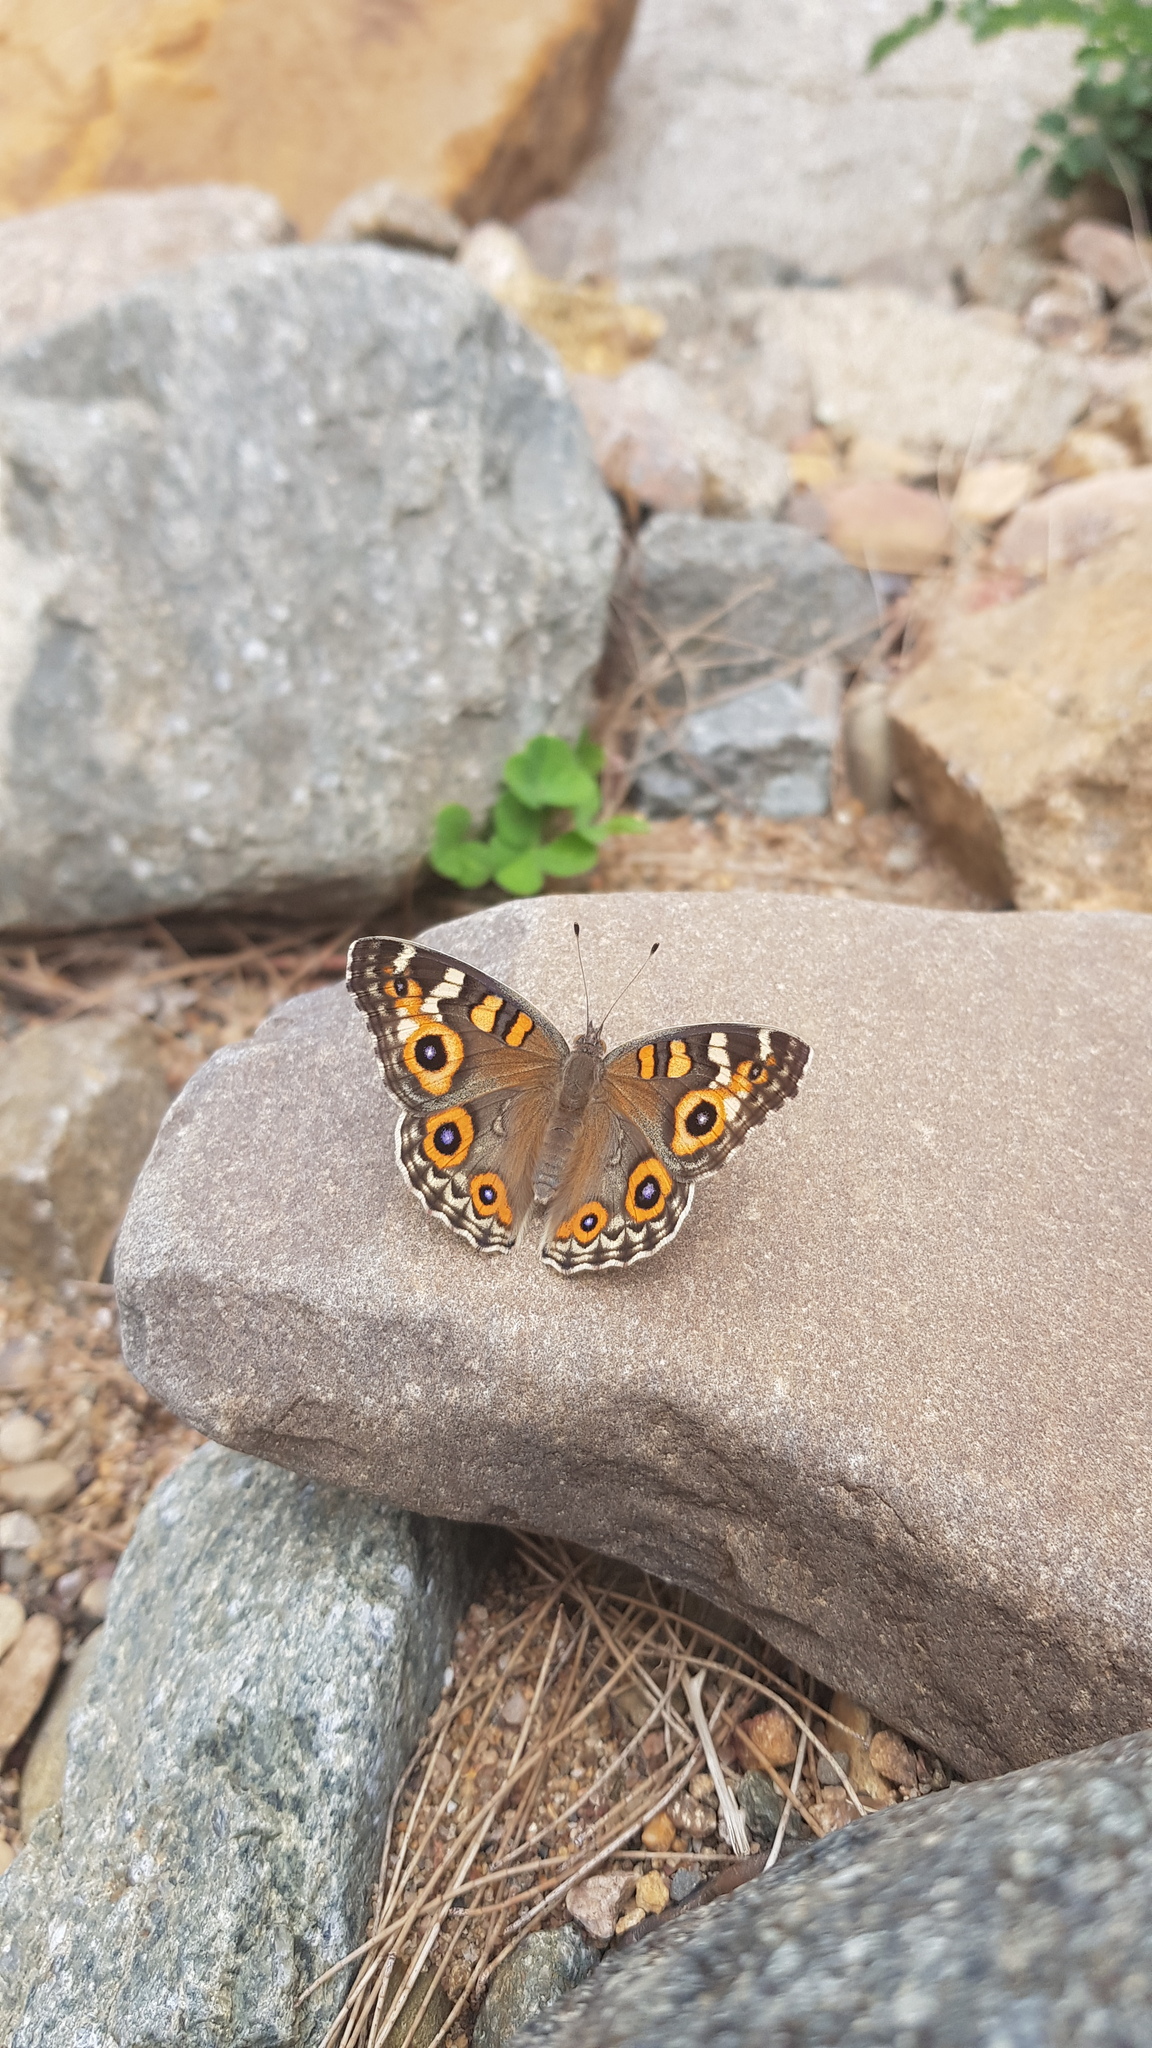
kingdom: Animalia
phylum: Arthropoda
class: Insecta
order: Lepidoptera
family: Nymphalidae
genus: Junonia
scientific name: Junonia villida
